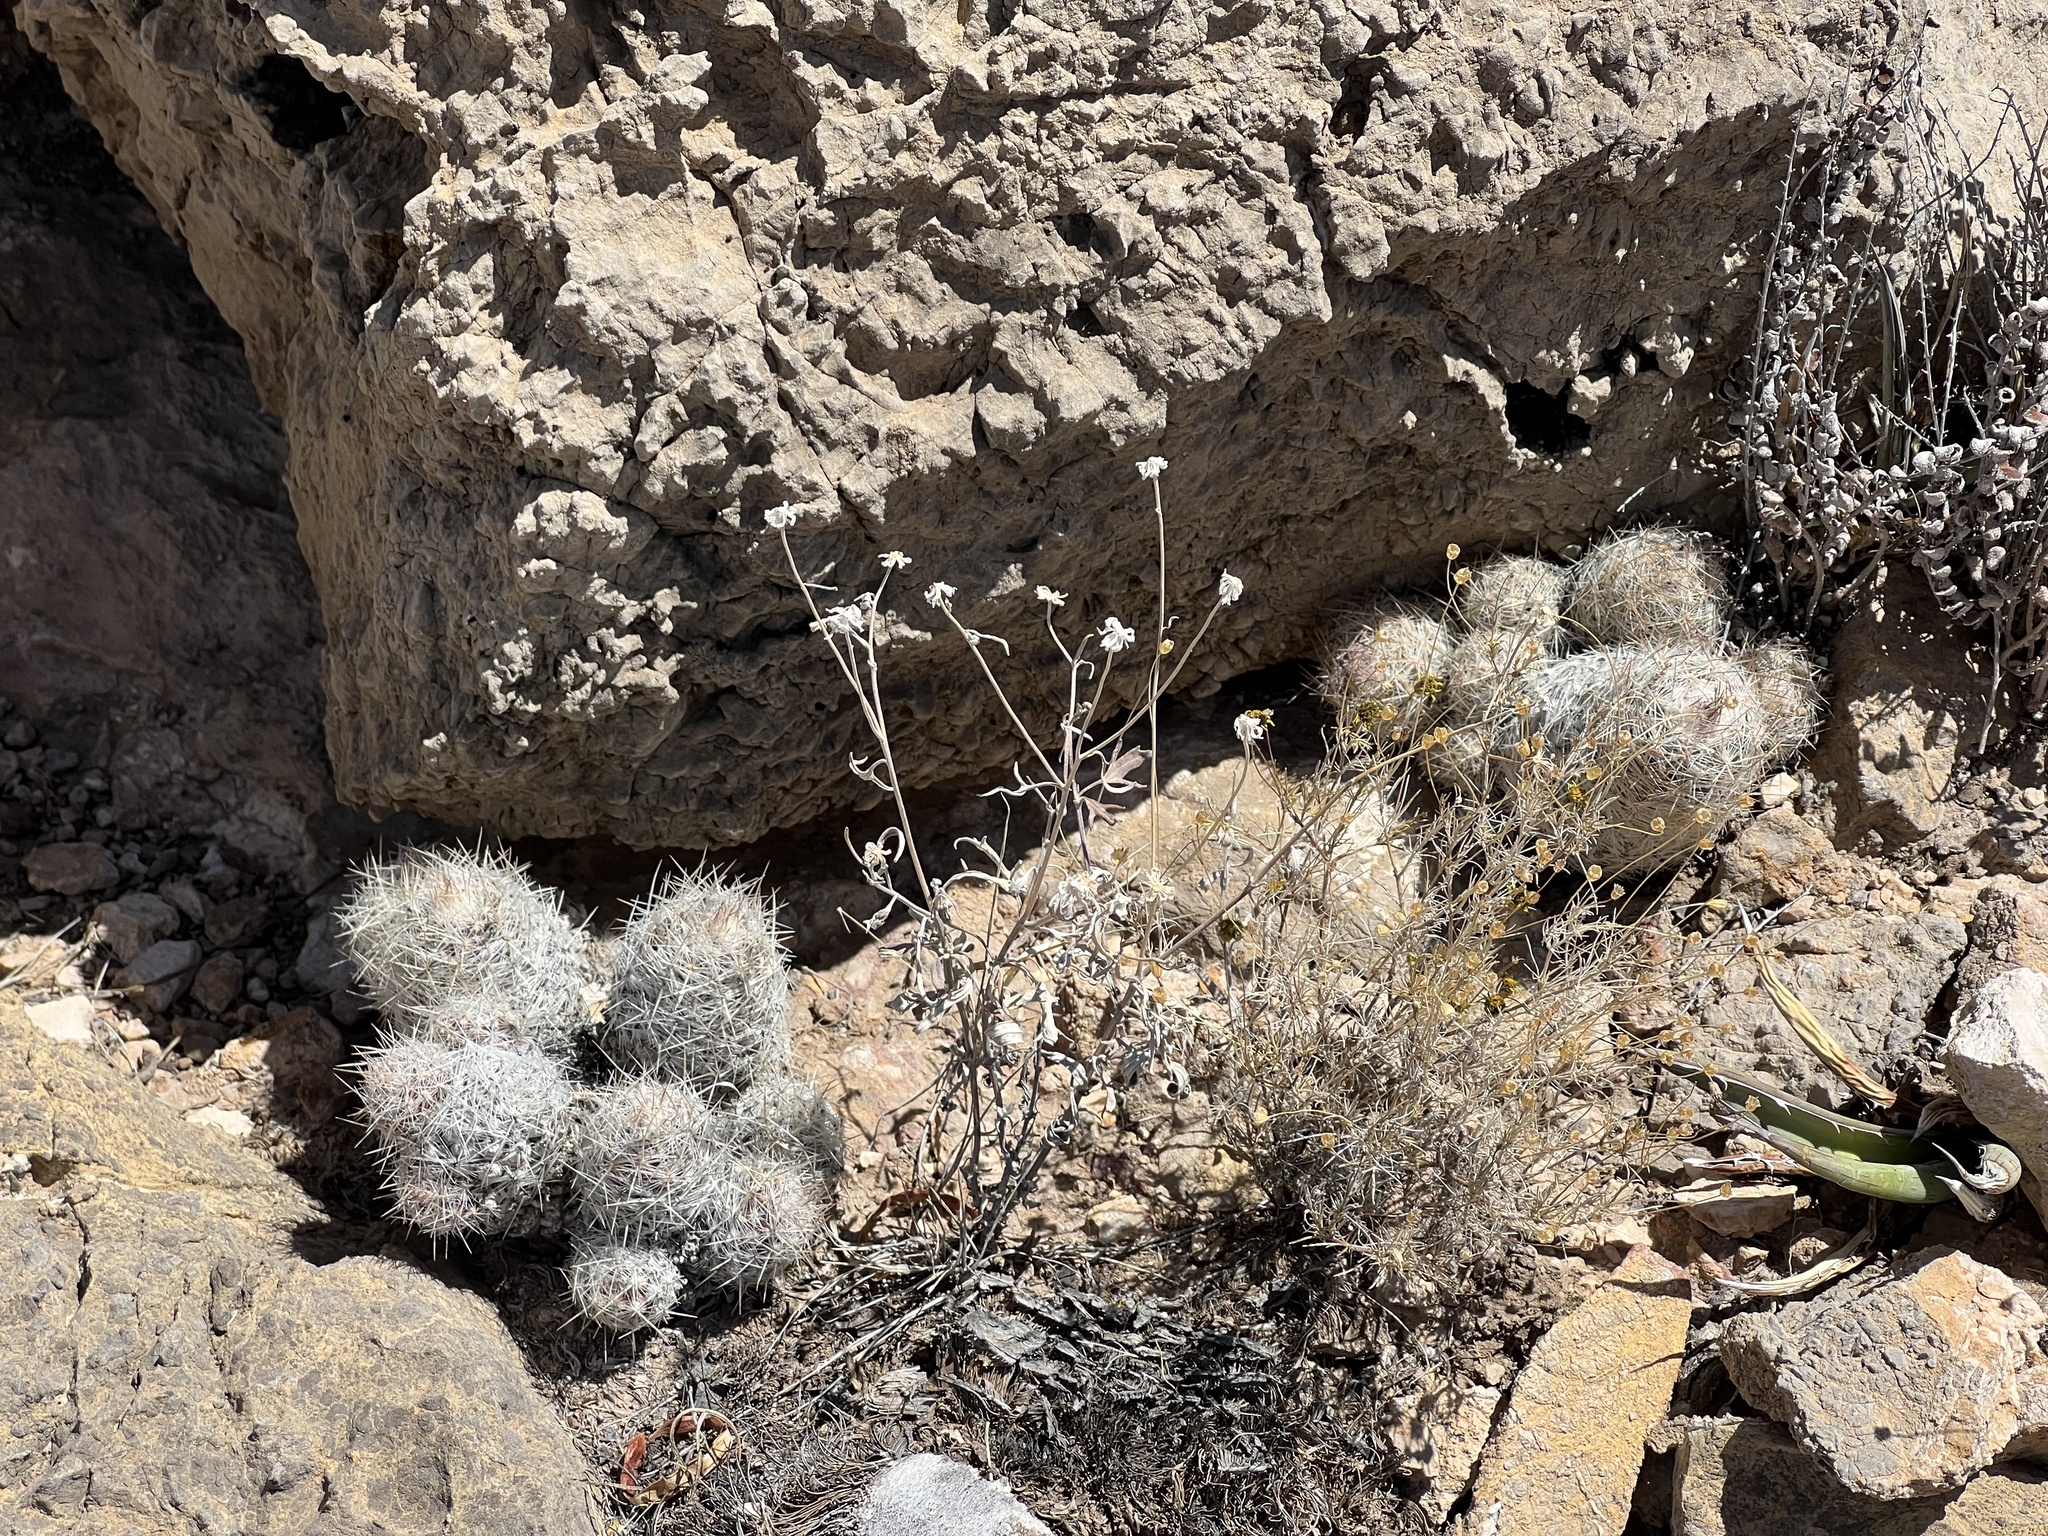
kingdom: Plantae
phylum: Tracheophyta
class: Magnoliopsida
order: Caryophyllales
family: Cactaceae
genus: Pelecyphora
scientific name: Pelecyphora tuberculosa
